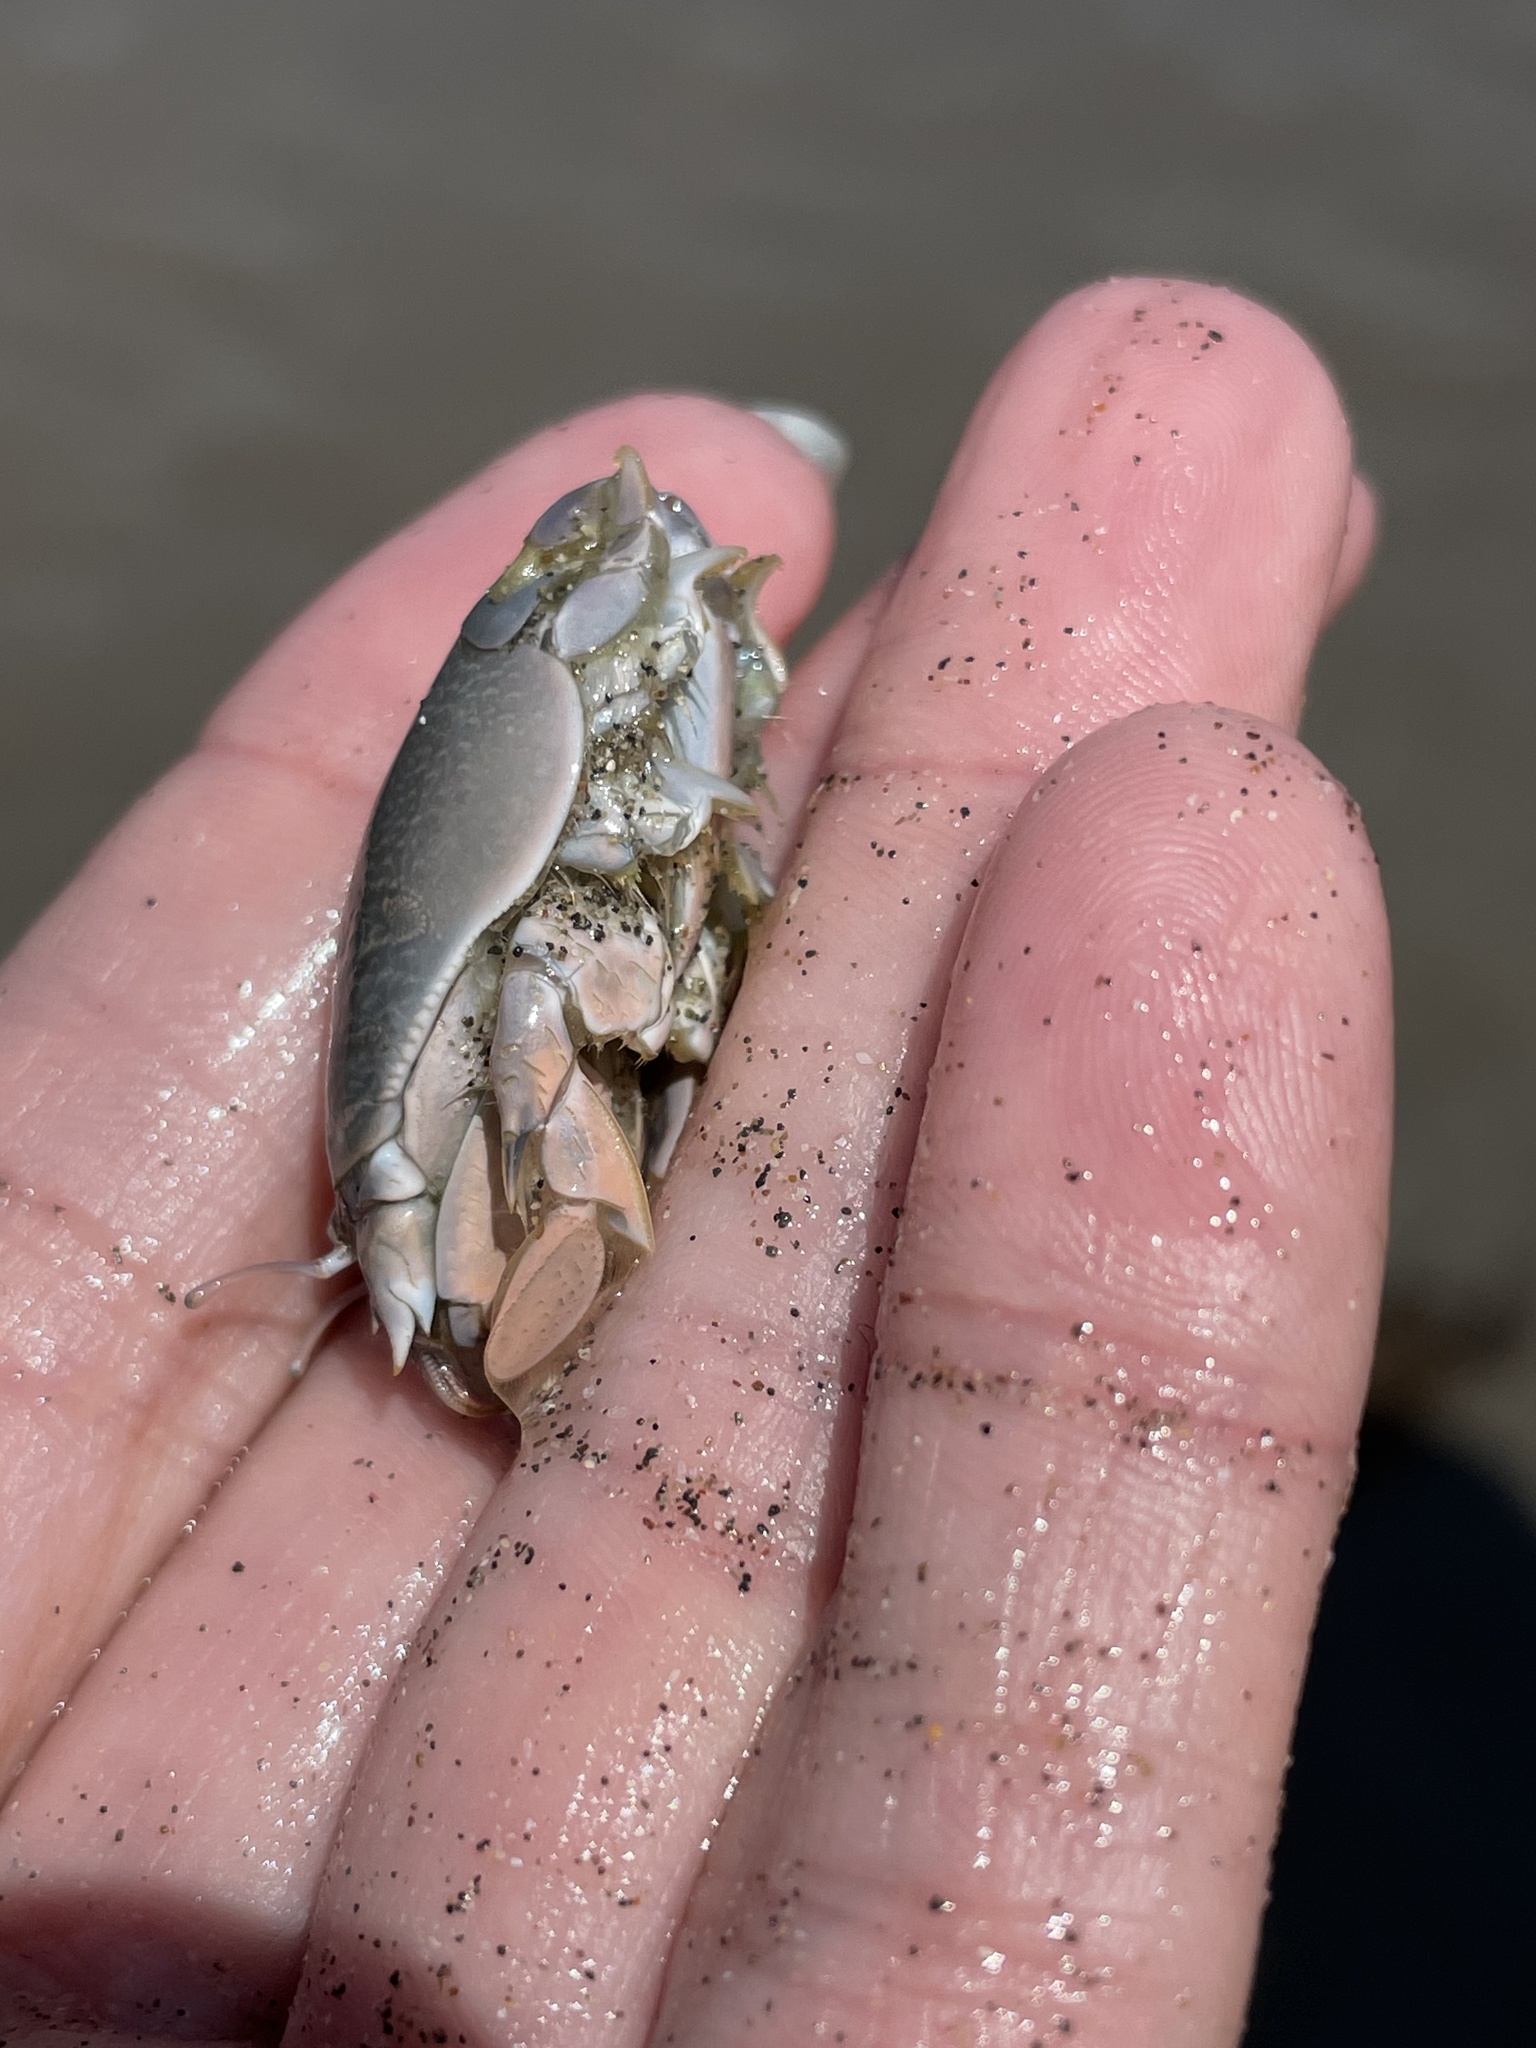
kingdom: Animalia
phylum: Arthropoda
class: Malacostraca
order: Decapoda
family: Hippidae
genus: Emerita
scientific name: Emerita analoga
